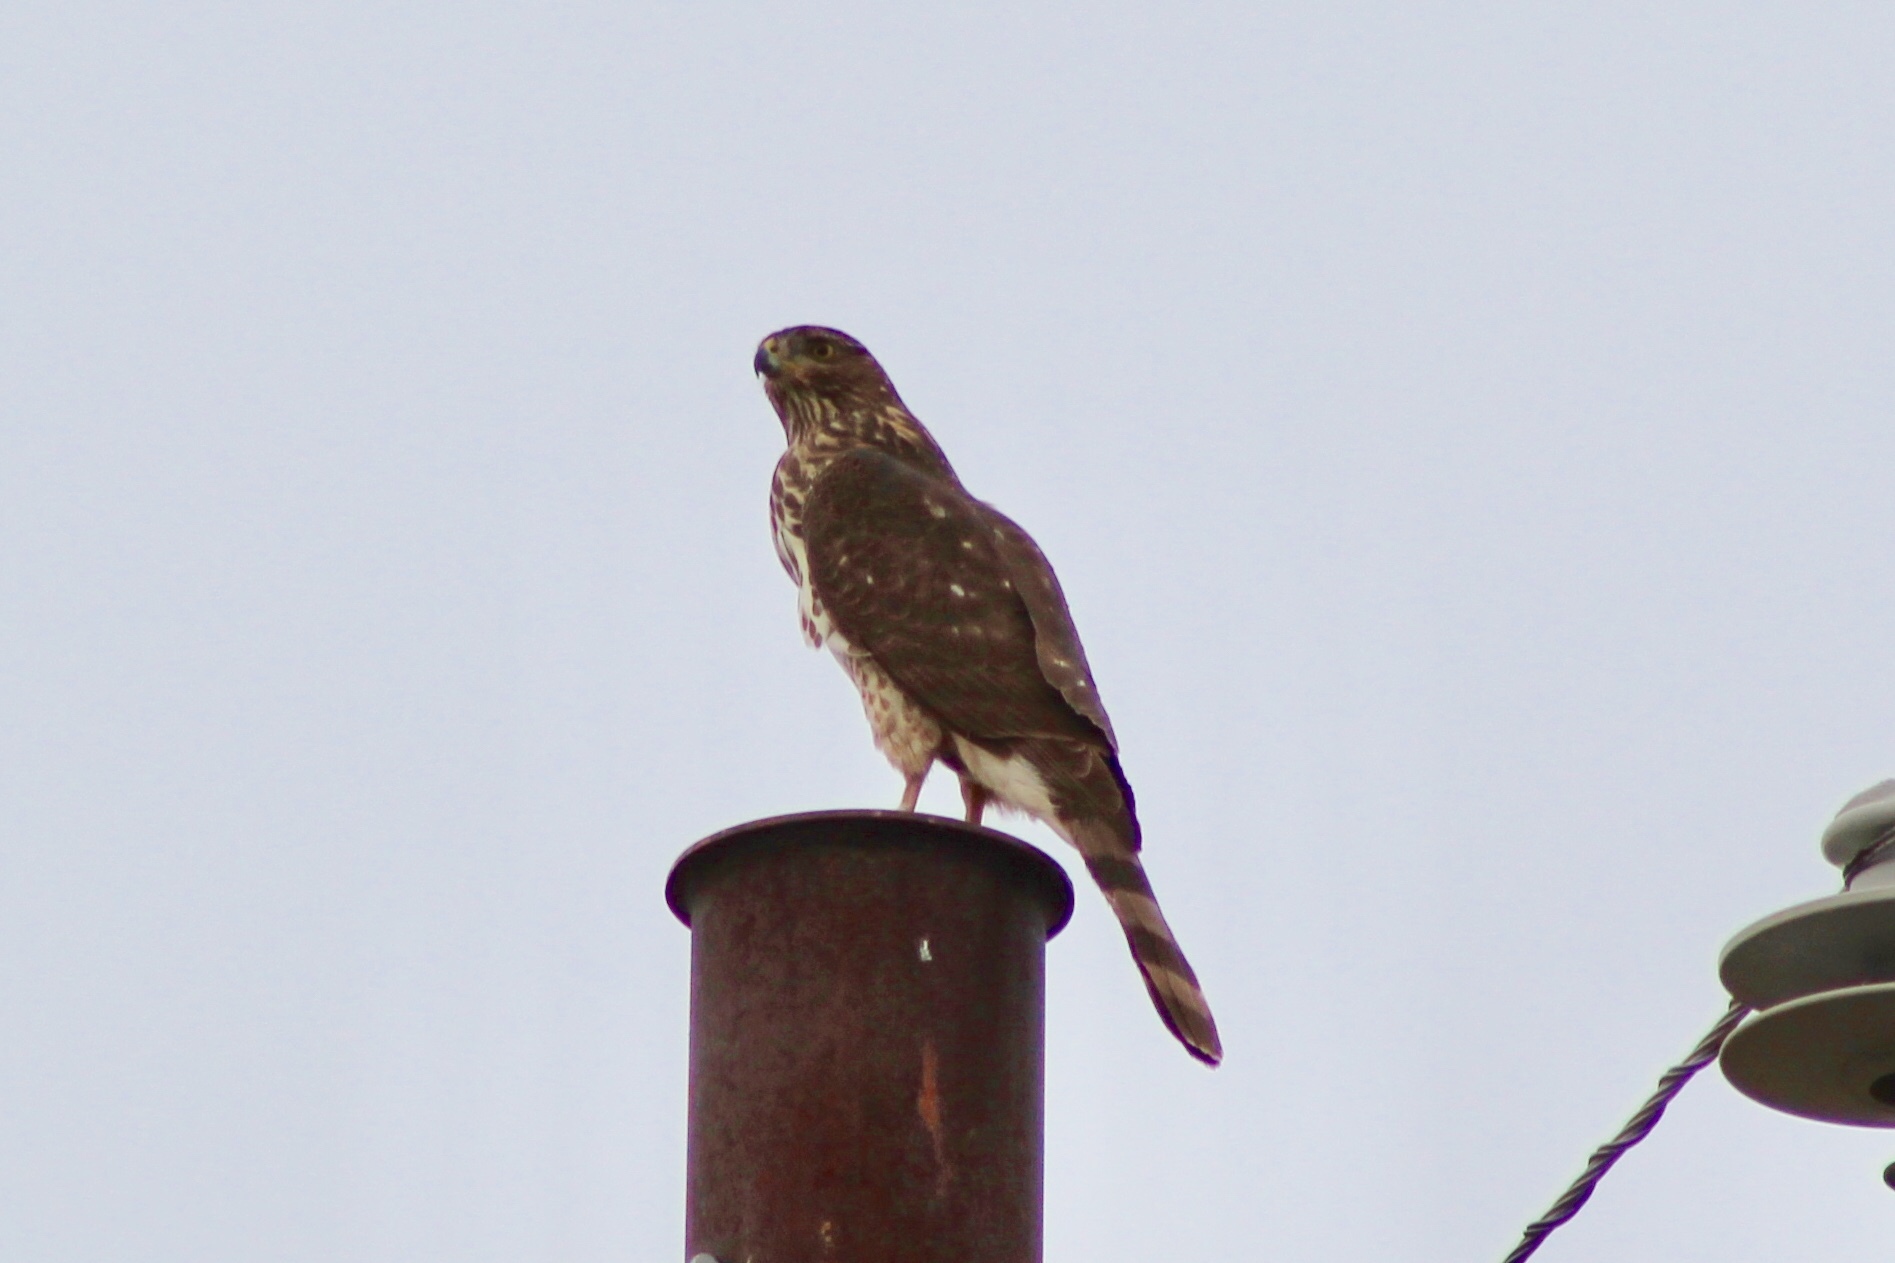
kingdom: Animalia
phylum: Chordata
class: Aves
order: Accipitriformes
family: Accipitridae
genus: Accipiter
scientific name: Accipiter cooperii
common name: Cooper's hawk
